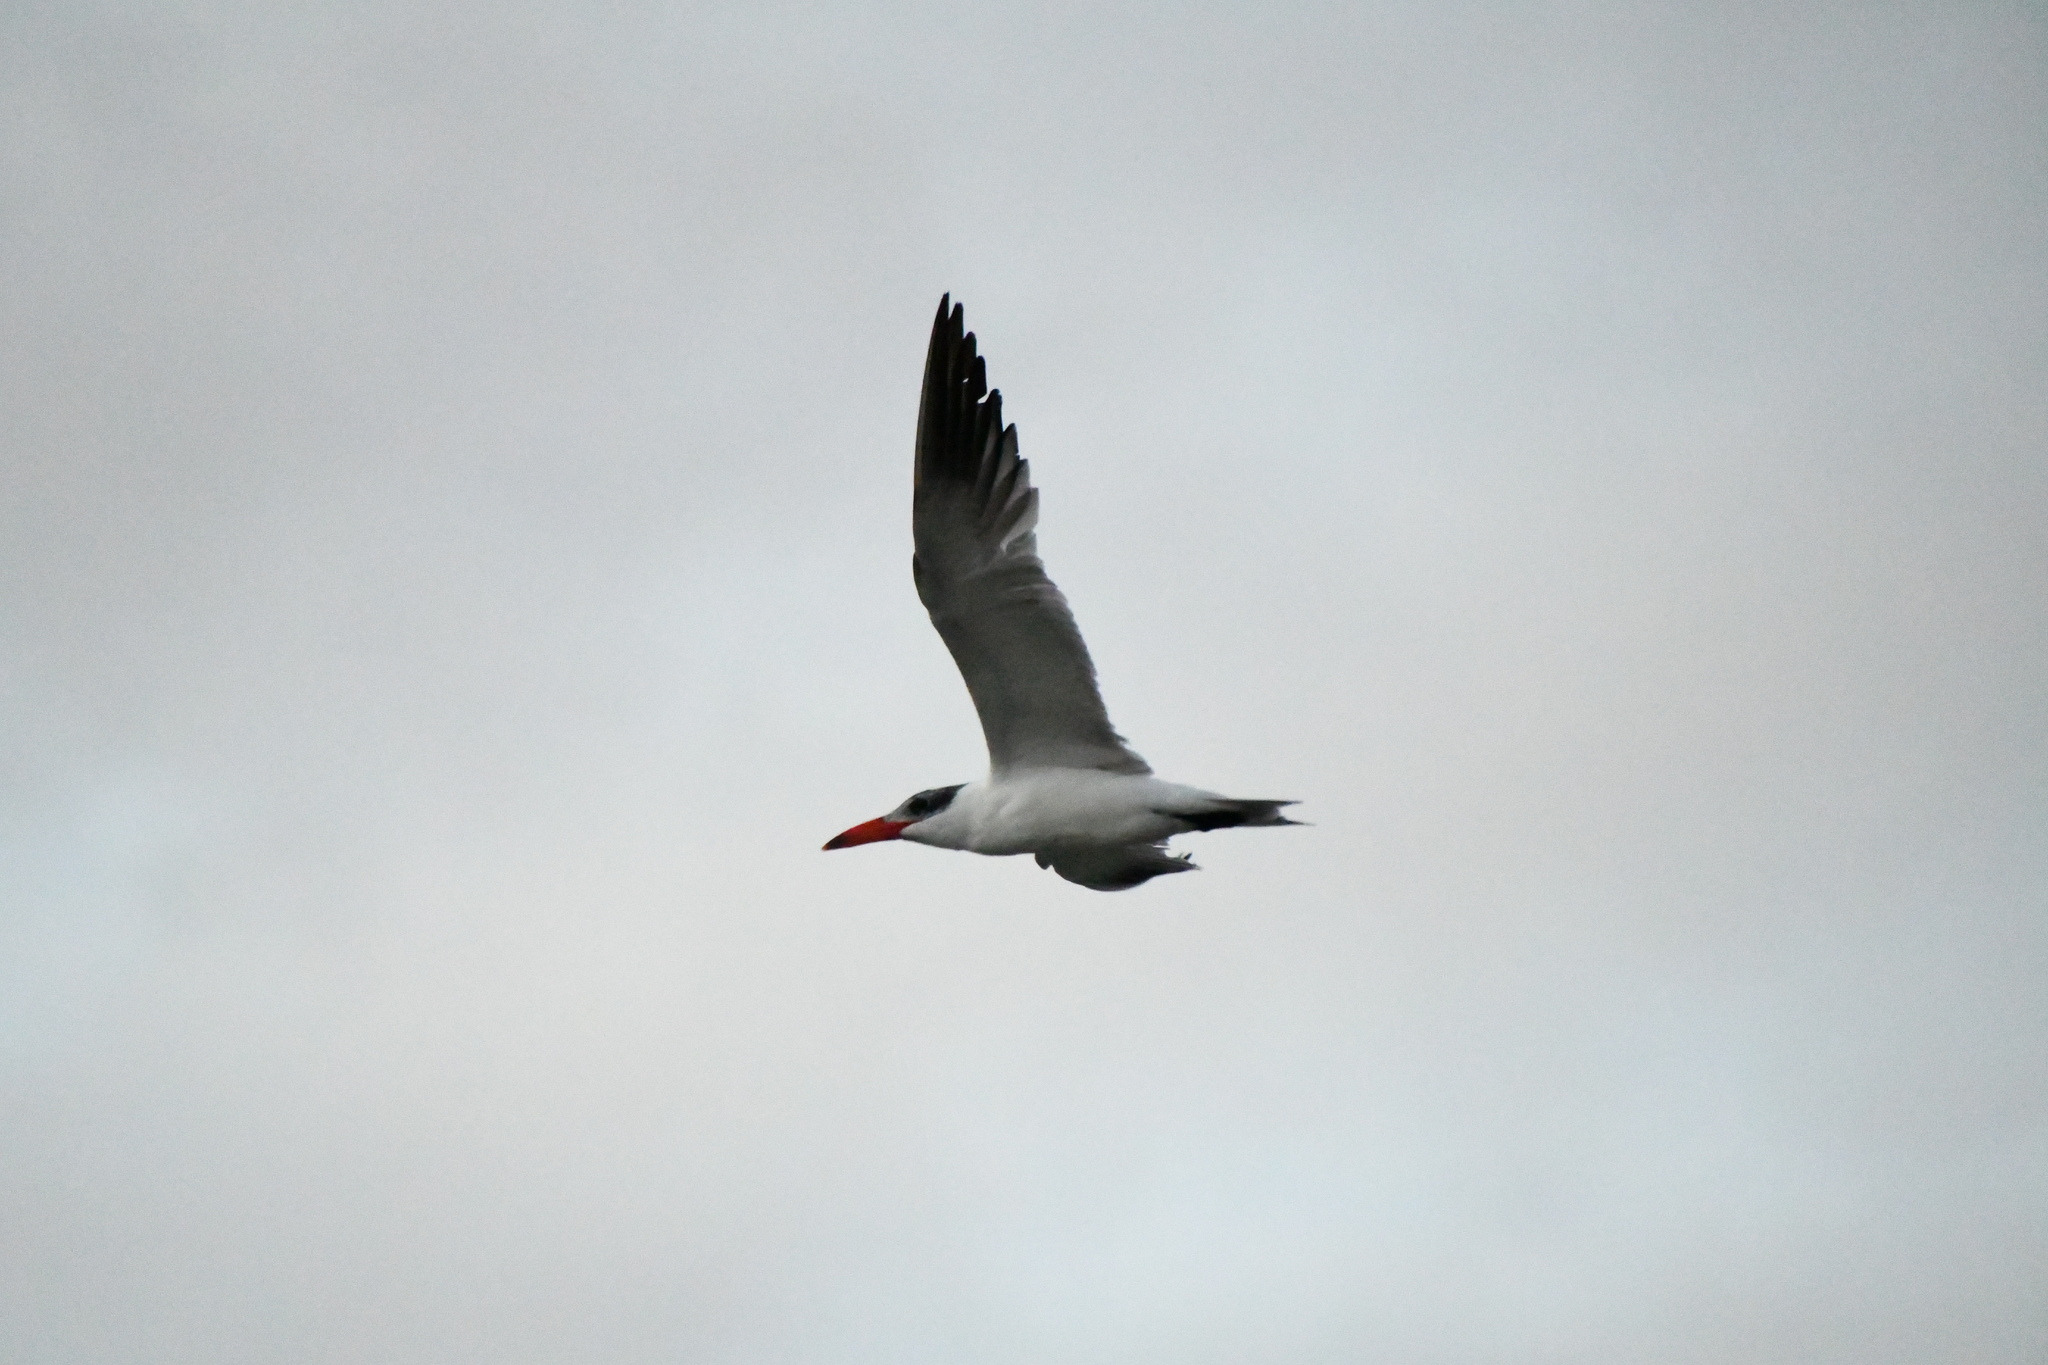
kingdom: Animalia
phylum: Chordata
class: Aves
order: Charadriiformes
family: Laridae
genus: Hydroprogne
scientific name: Hydroprogne caspia
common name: Caspian tern
